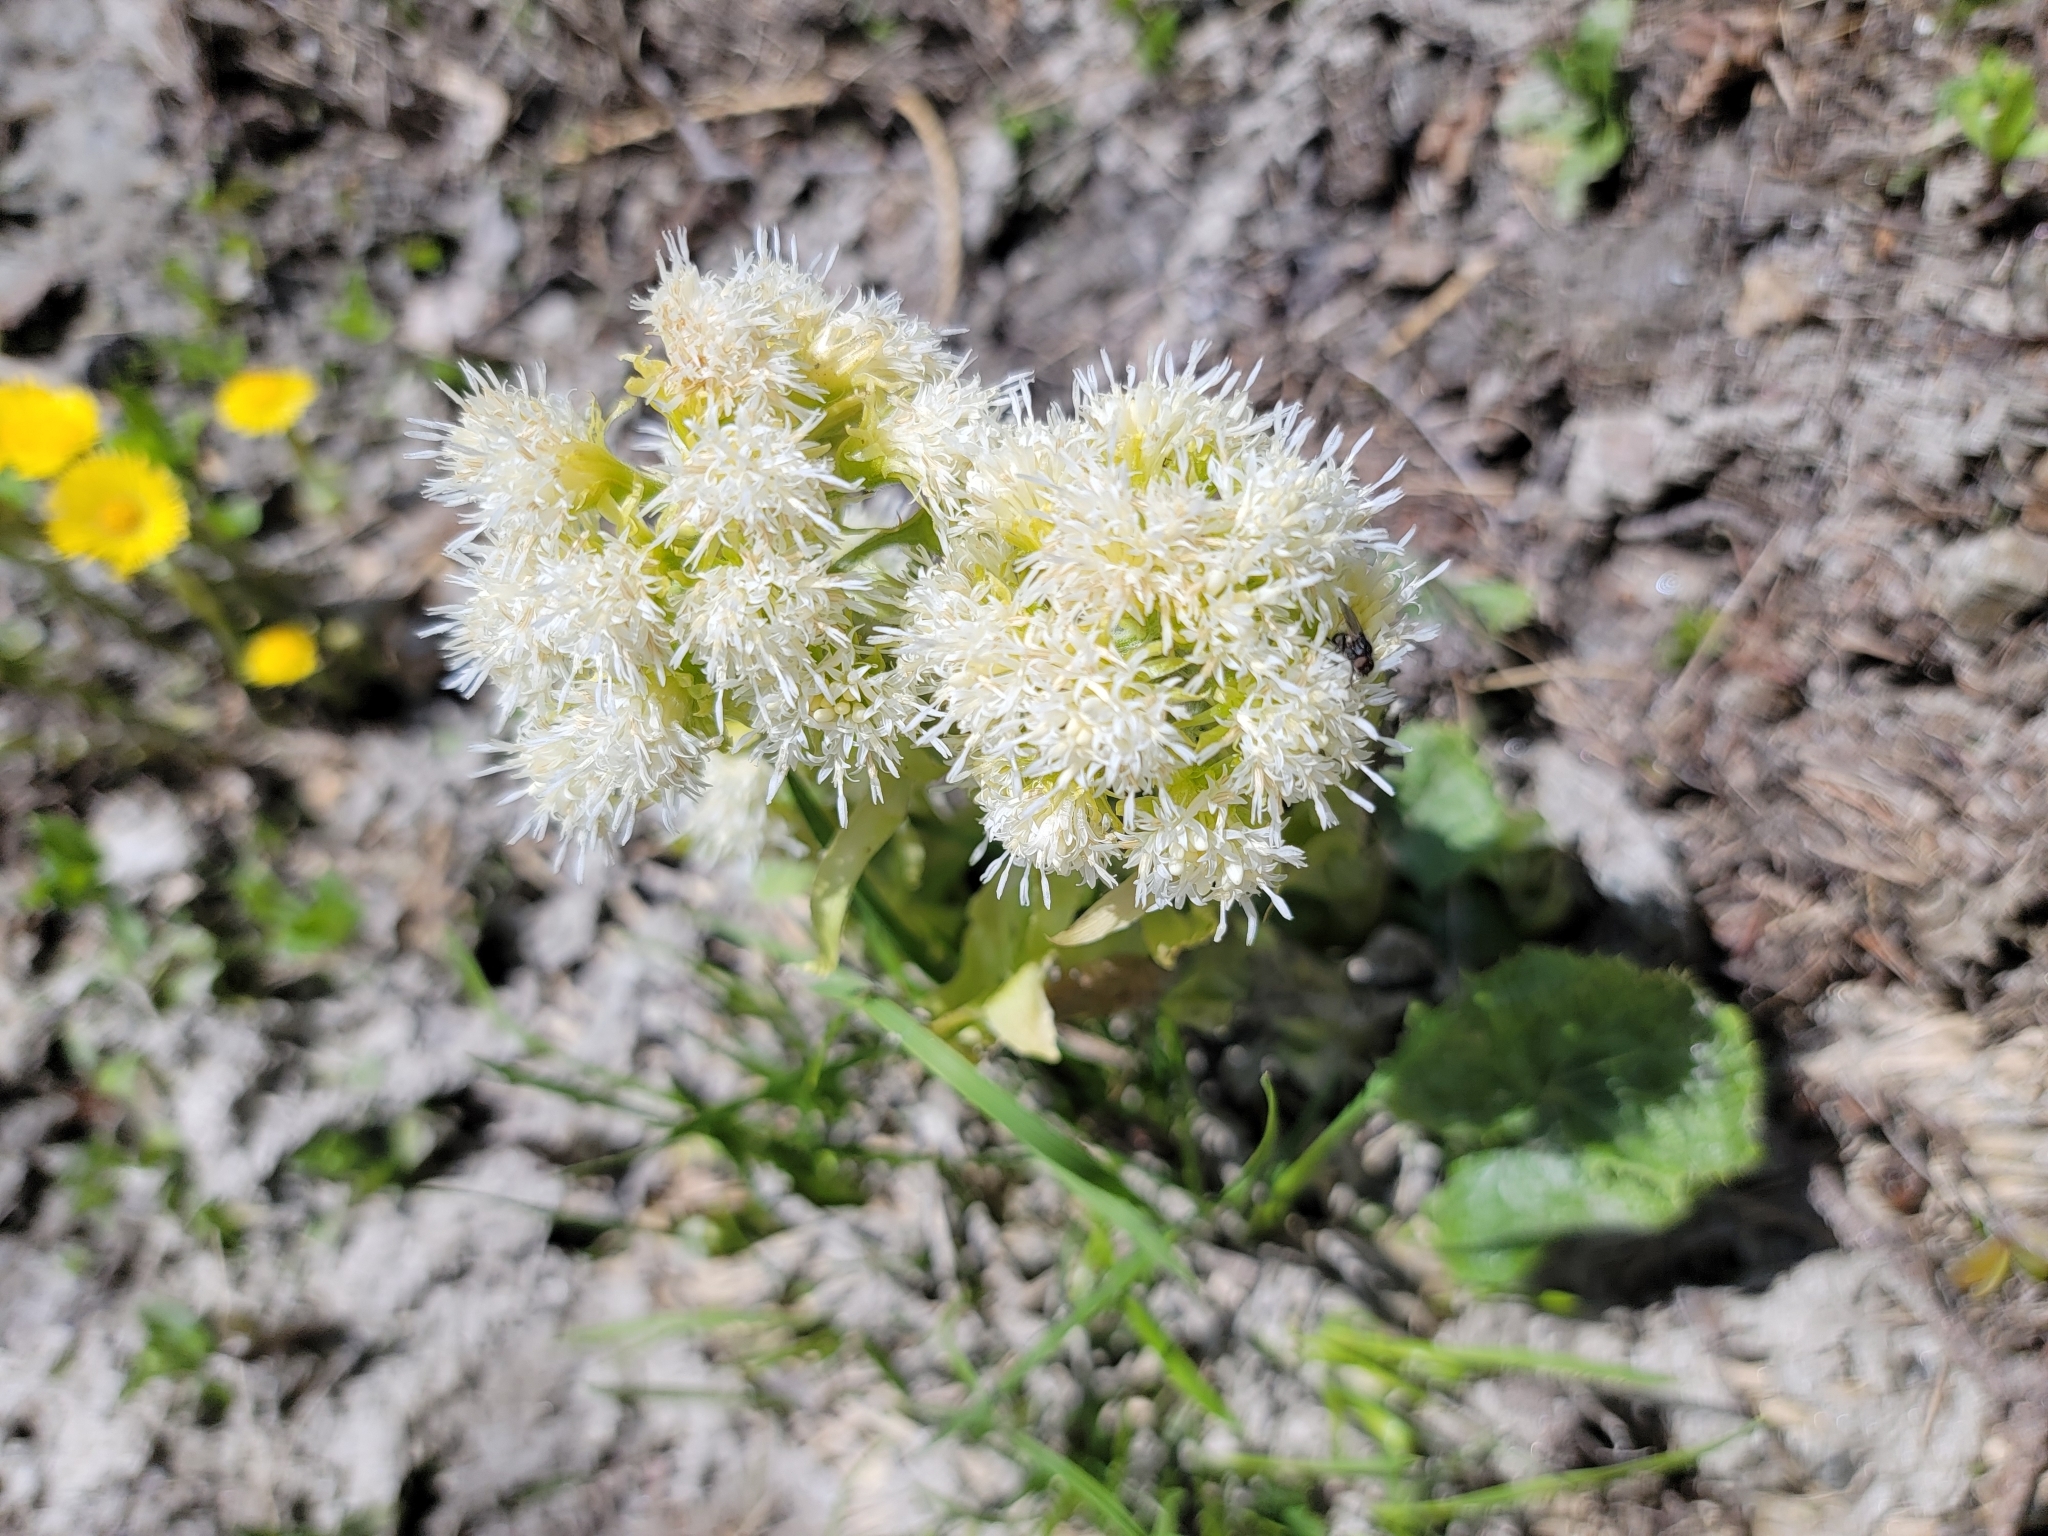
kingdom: Plantae
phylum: Tracheophyta
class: Magnoliopsida
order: Asterales
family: Asteraceae
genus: Petasites
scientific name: Petasites albus
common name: White butterbur
